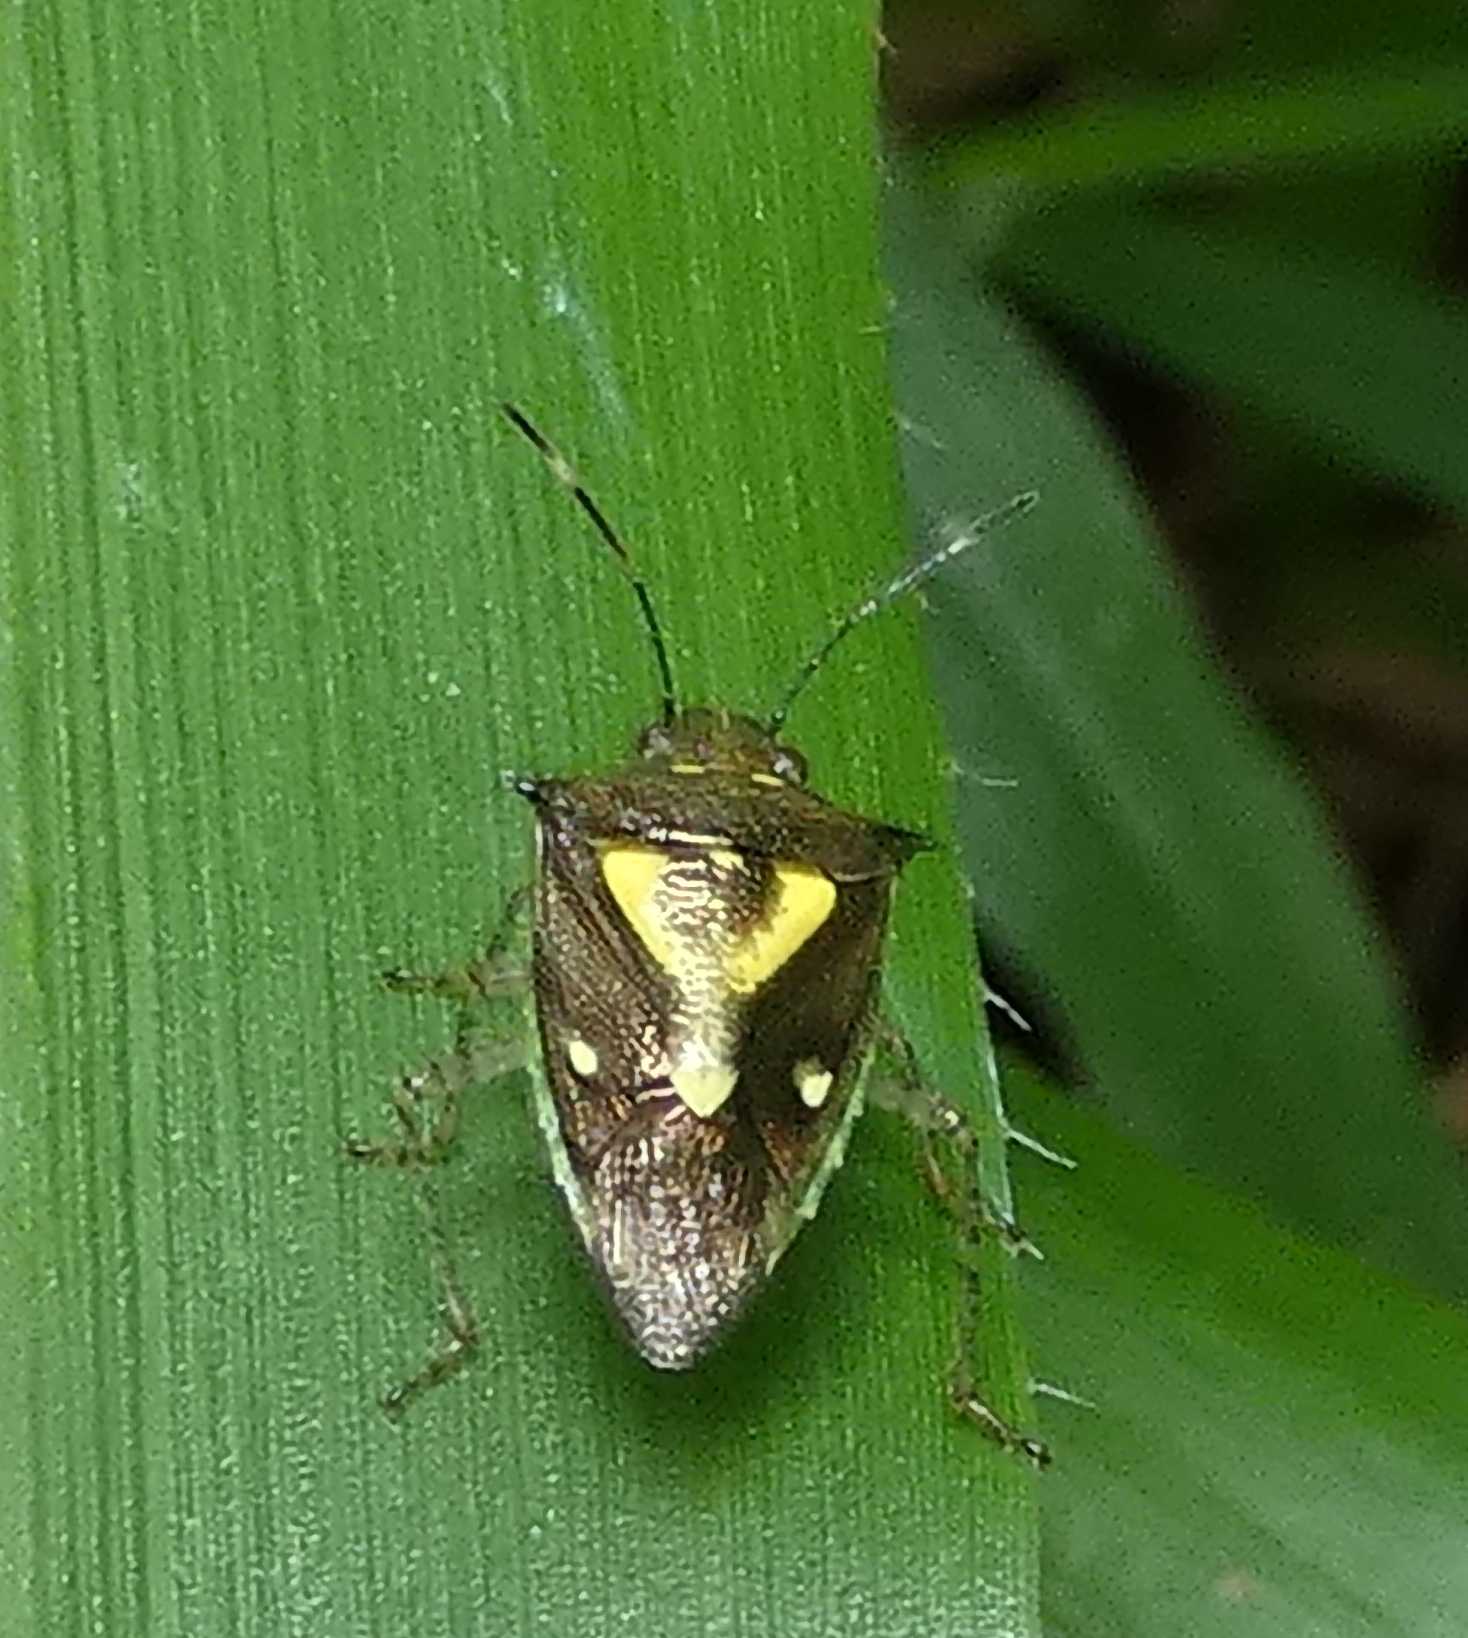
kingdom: Animalia
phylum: Arthropoda
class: Insecta
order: Hemiptera
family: Pentatomidae
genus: Mormidea
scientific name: Mormidea ypsilon
